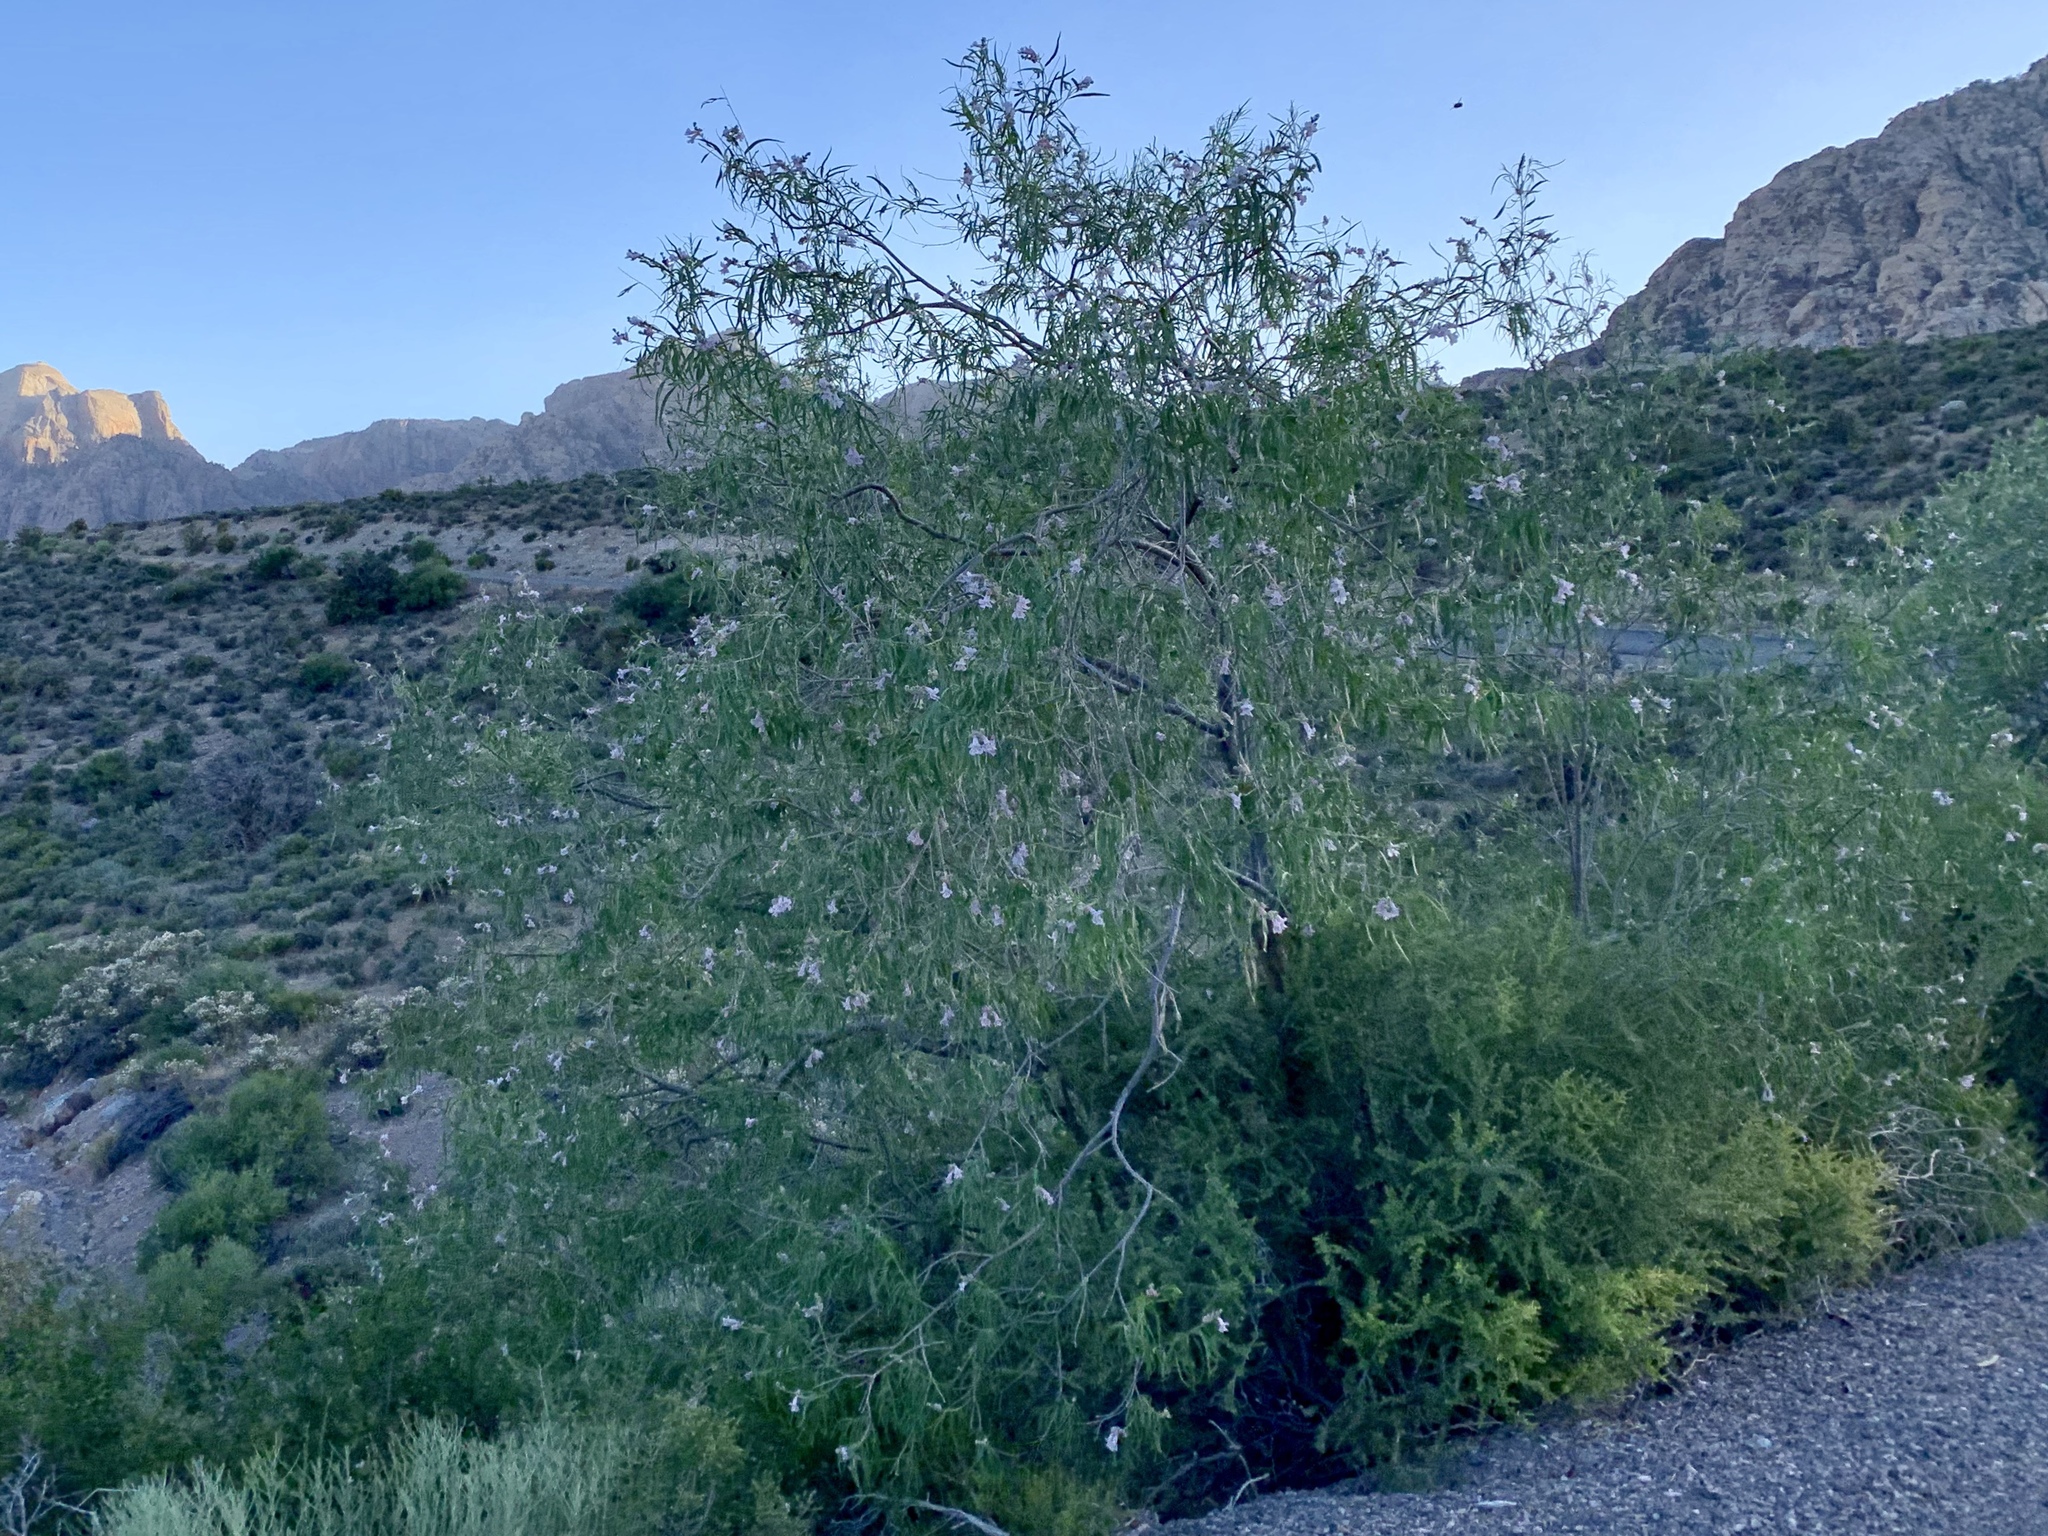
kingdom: Plantae
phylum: Tracheophyta
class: Magnoliopsida
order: Lamiales
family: Bignoniaceae
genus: Chilopsis
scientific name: Chilopsis linearis
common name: Desert-willow
